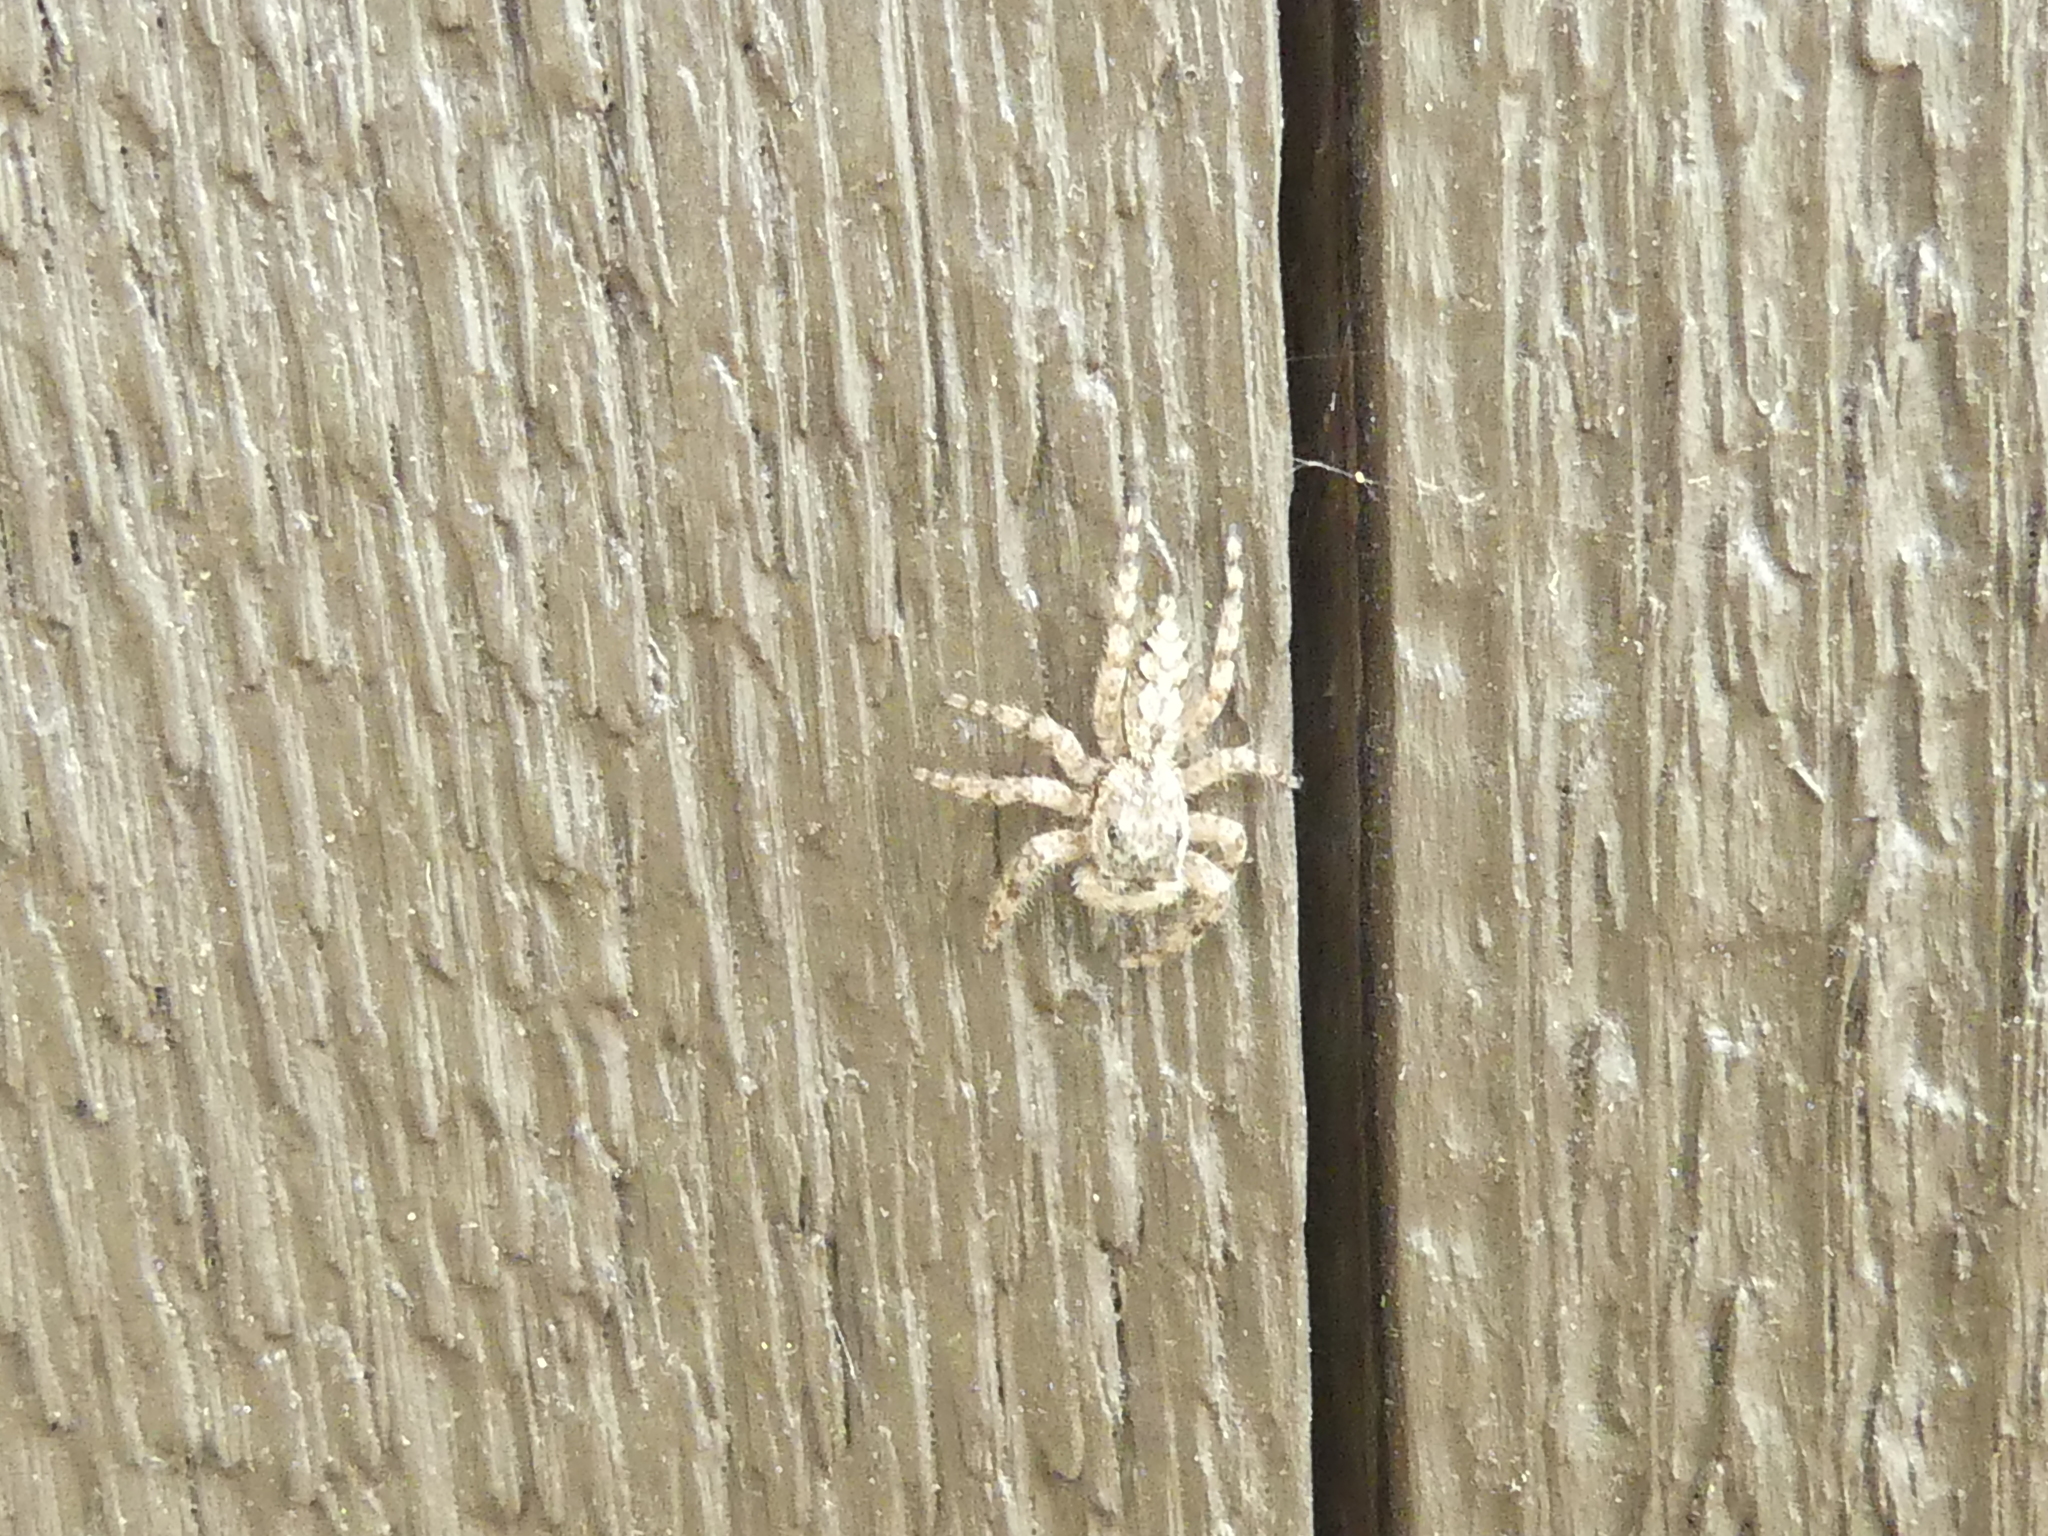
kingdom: Animalia
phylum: Arthropoda
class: Arachnida
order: Araneae
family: Salticidae
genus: Platycryptus
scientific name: Platycryptus undatus
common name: Tan jumping spider
